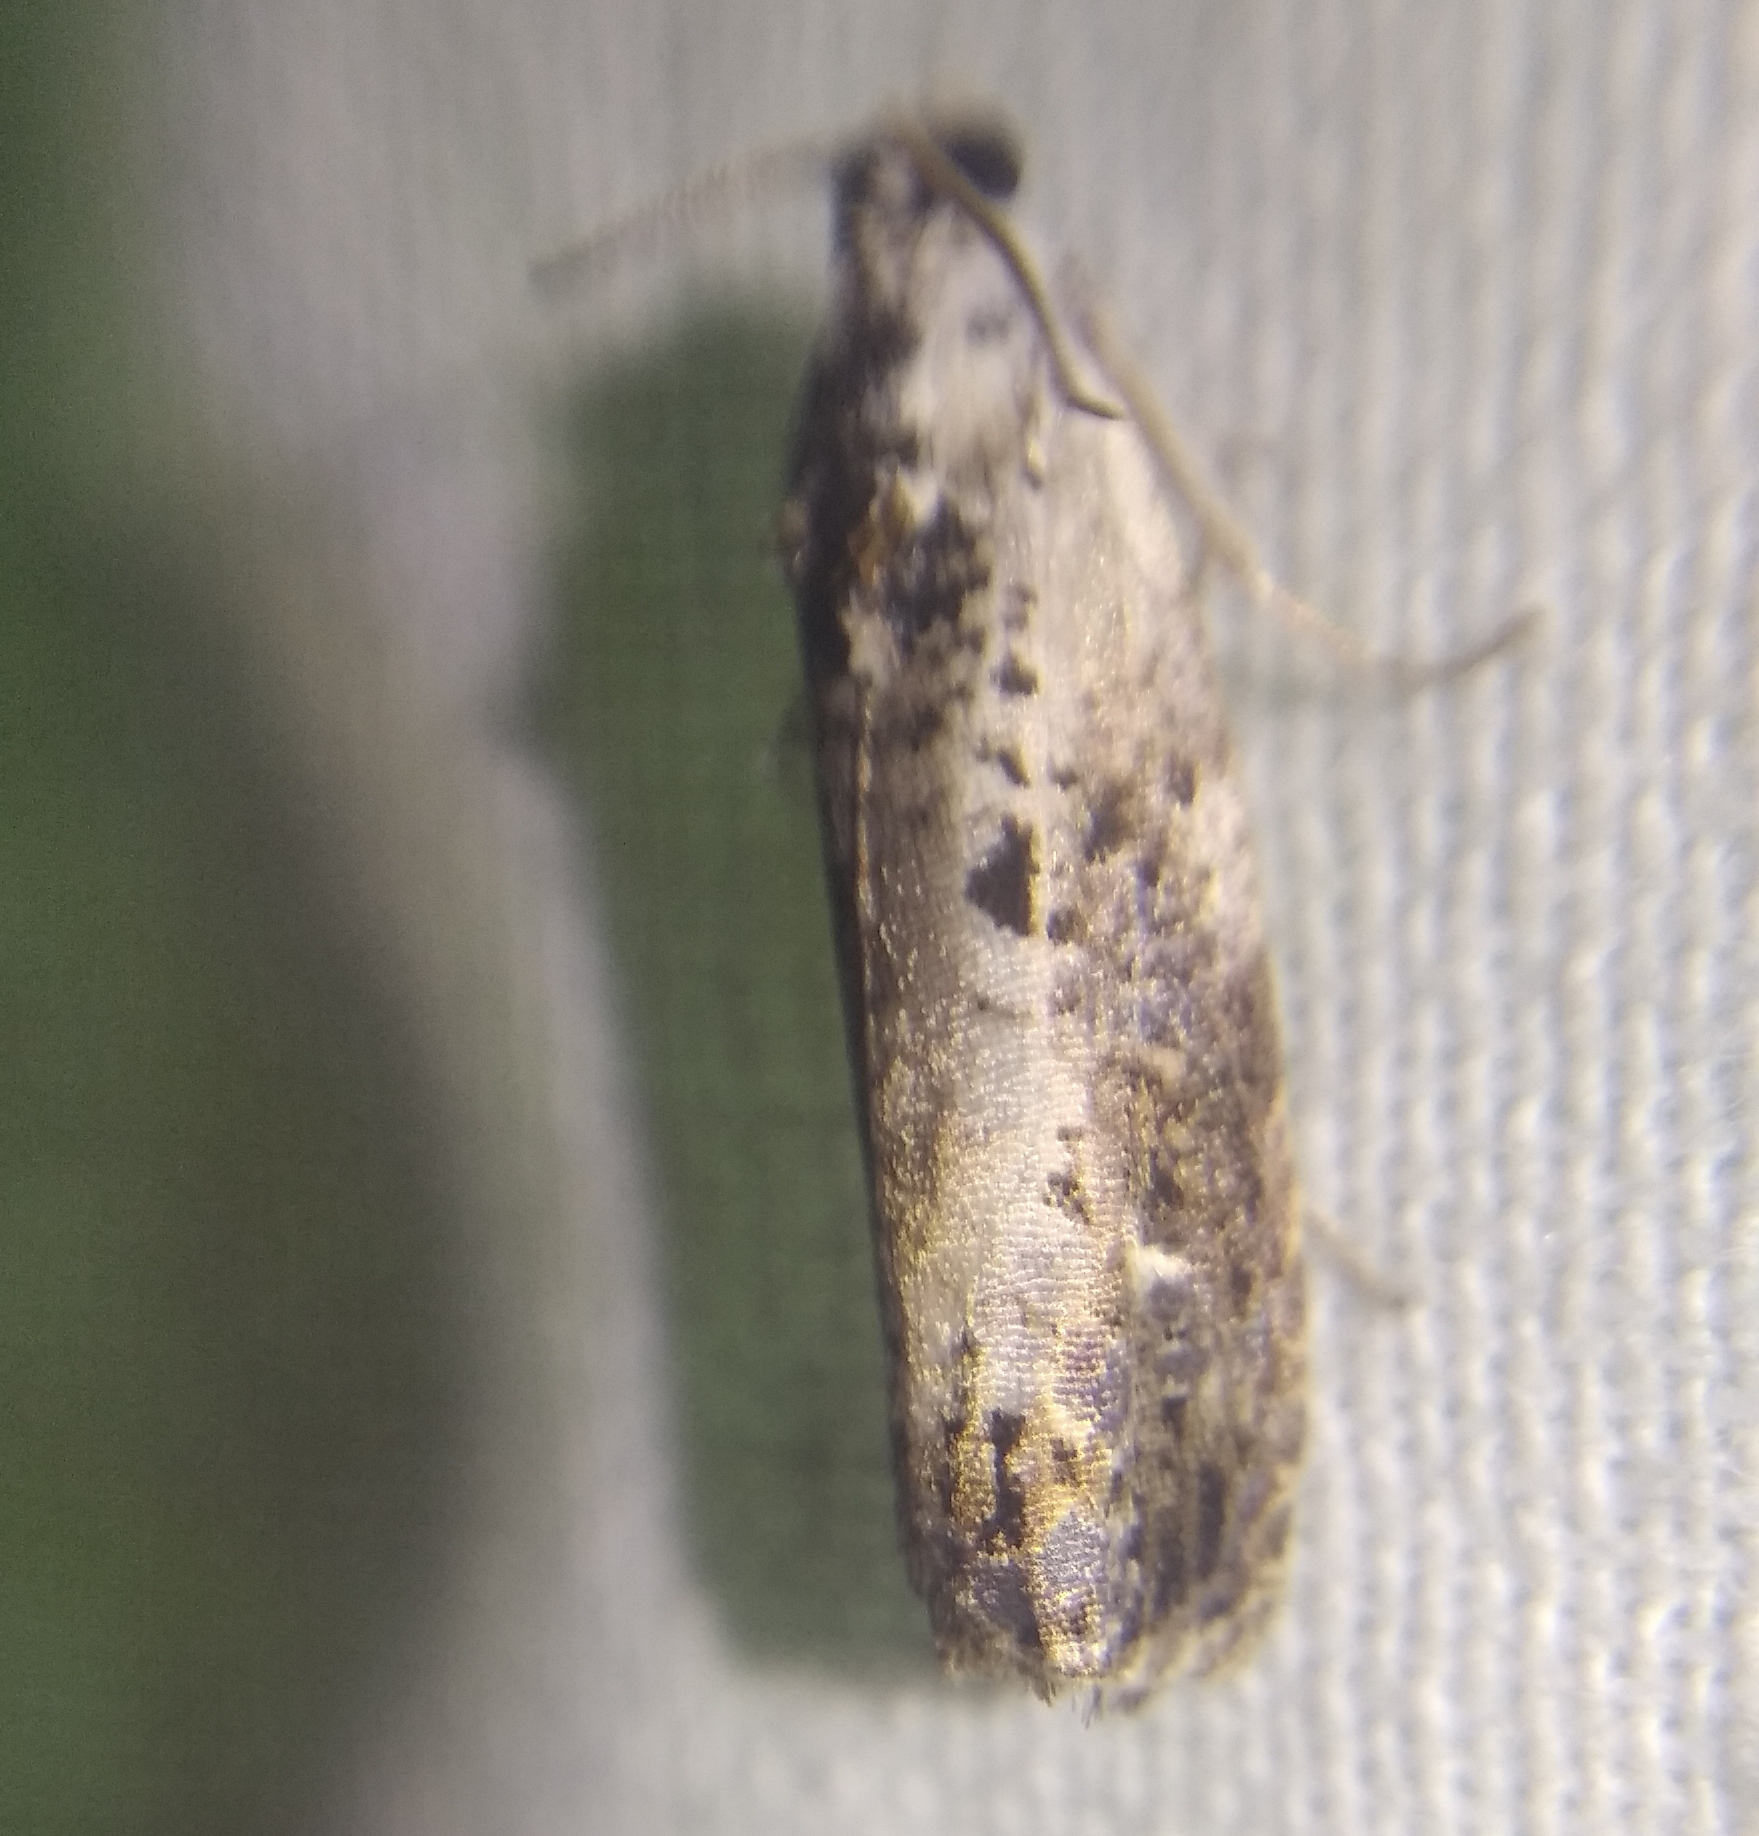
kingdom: Animalia
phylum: Arthropoda
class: Insecta
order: Lepidoptera
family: Tortricidae
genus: Hedya
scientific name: Hedya salicella
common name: Large tortricid moth
